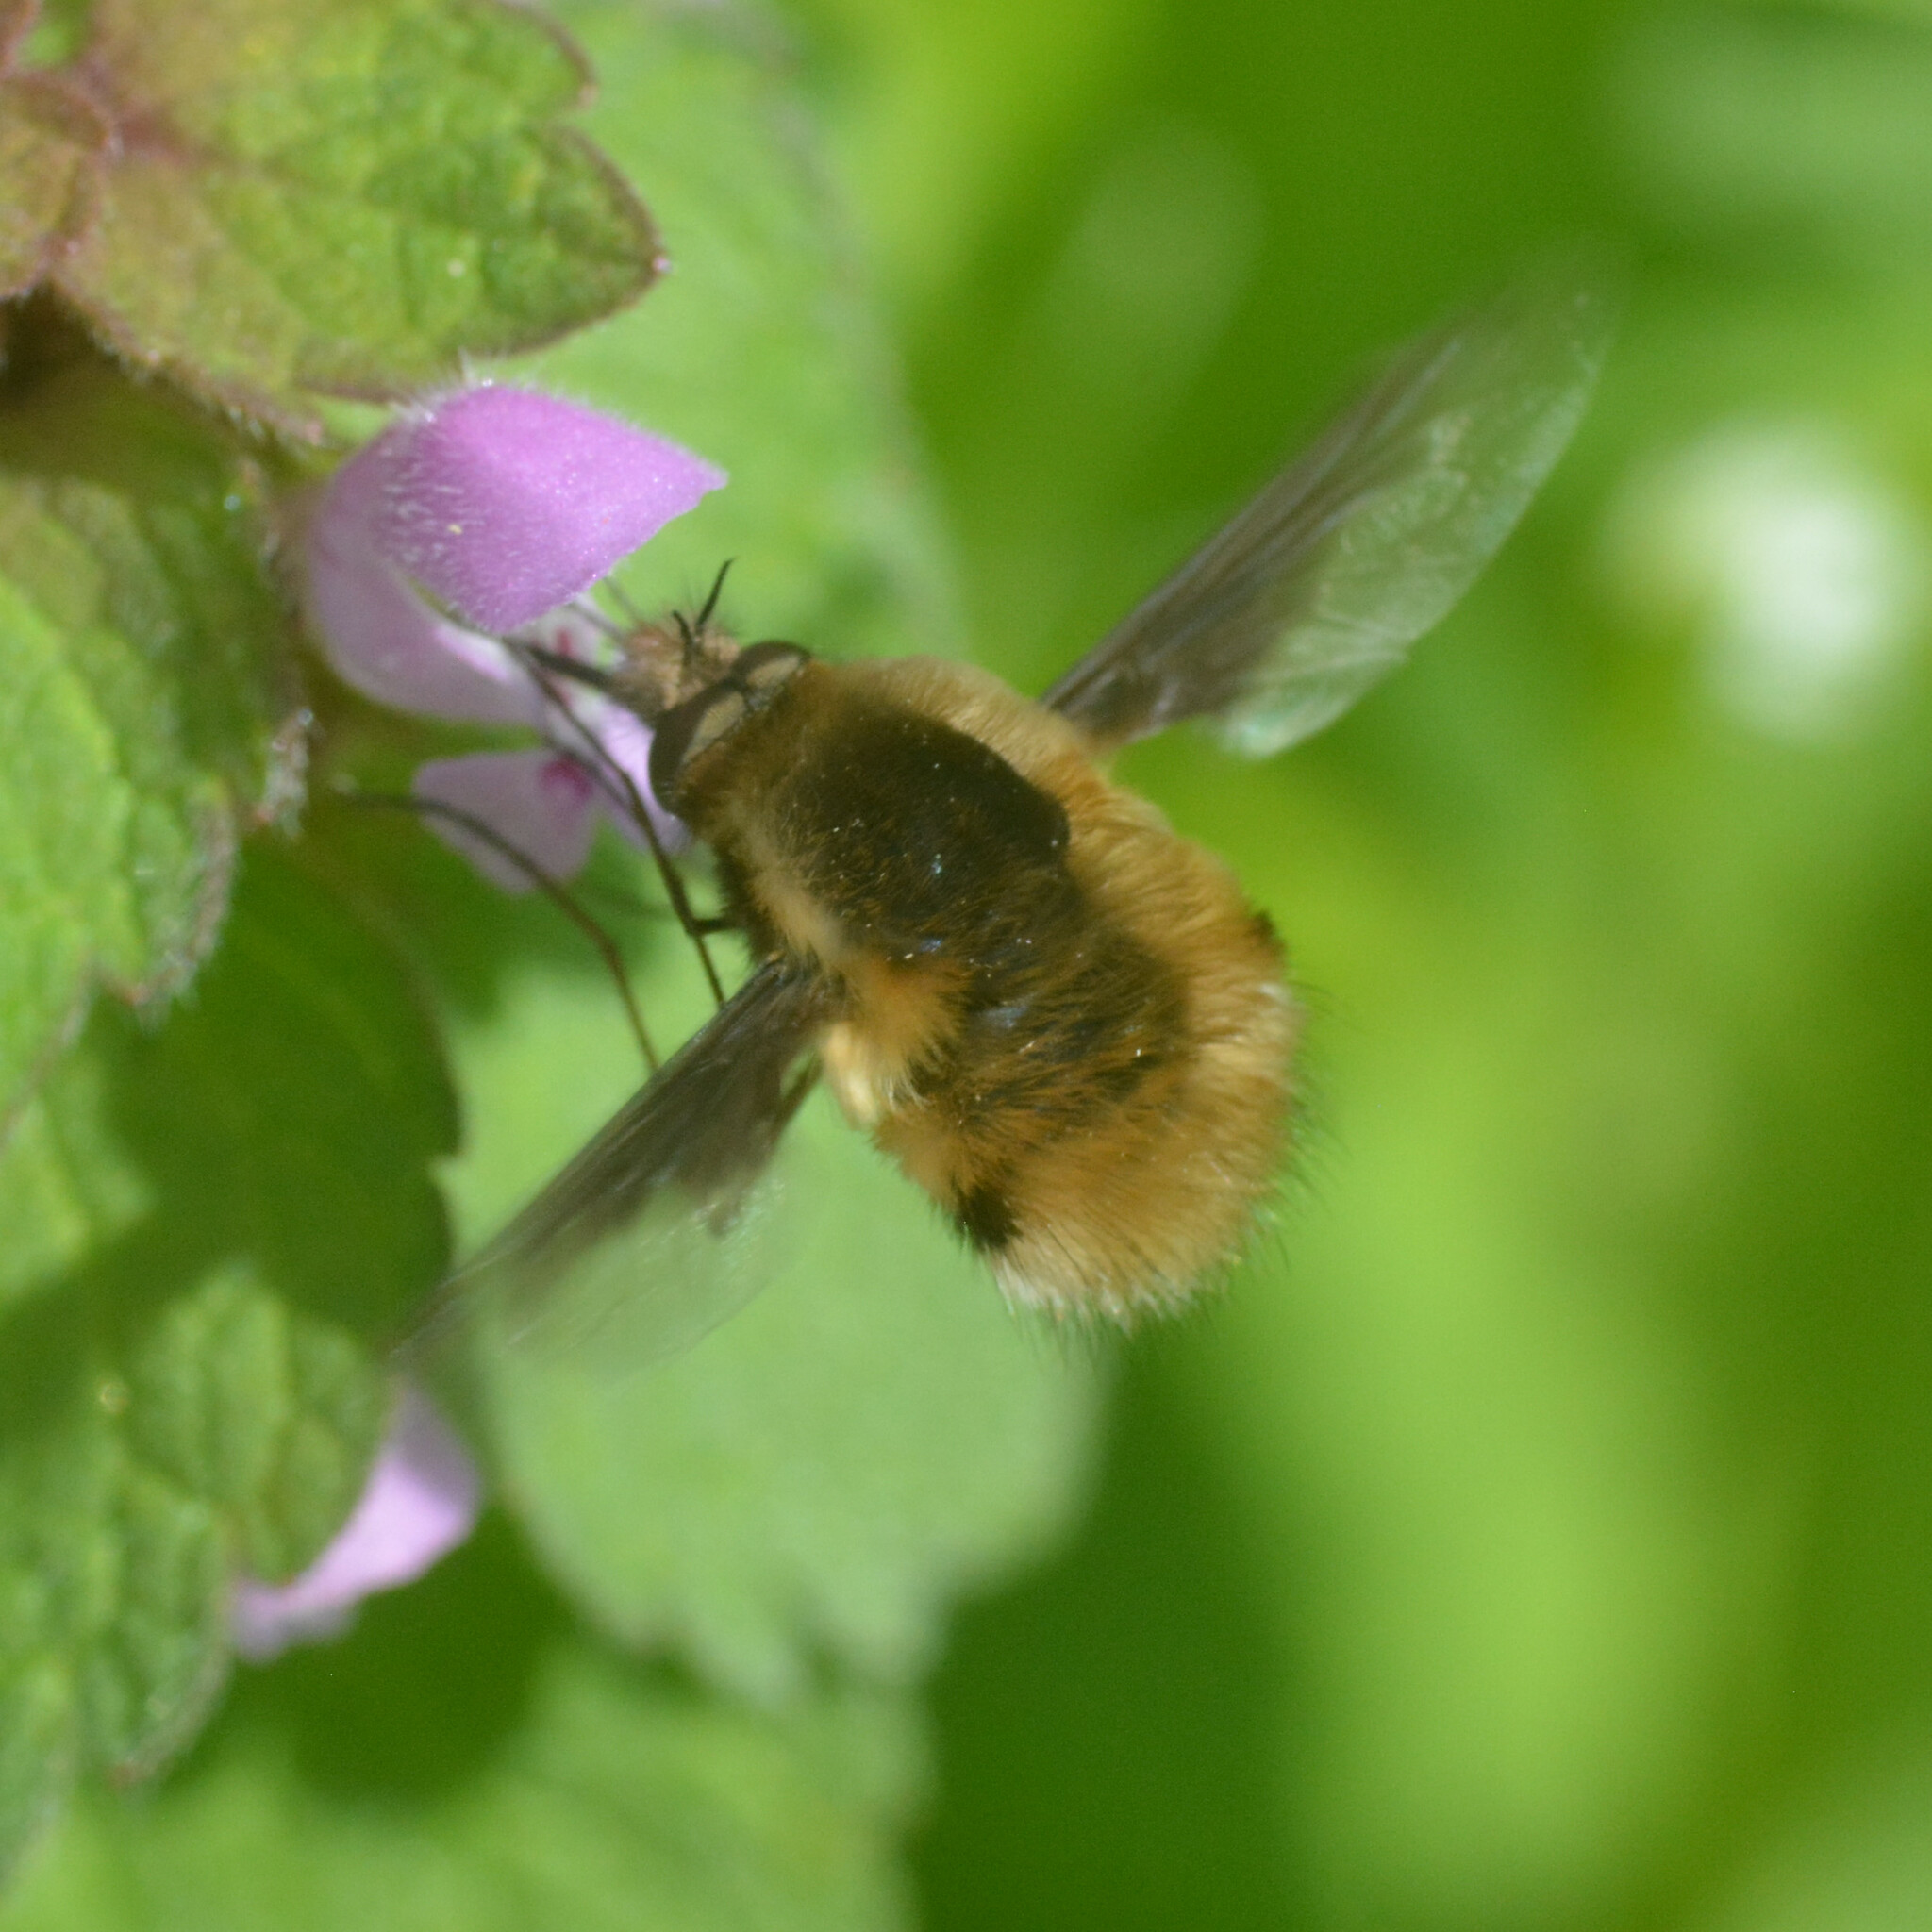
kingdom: Animalia
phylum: Arthropoda
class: Insecta
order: Diptera
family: Bombyliidae
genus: Bombylius
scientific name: Bombylius major
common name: Bee fly
